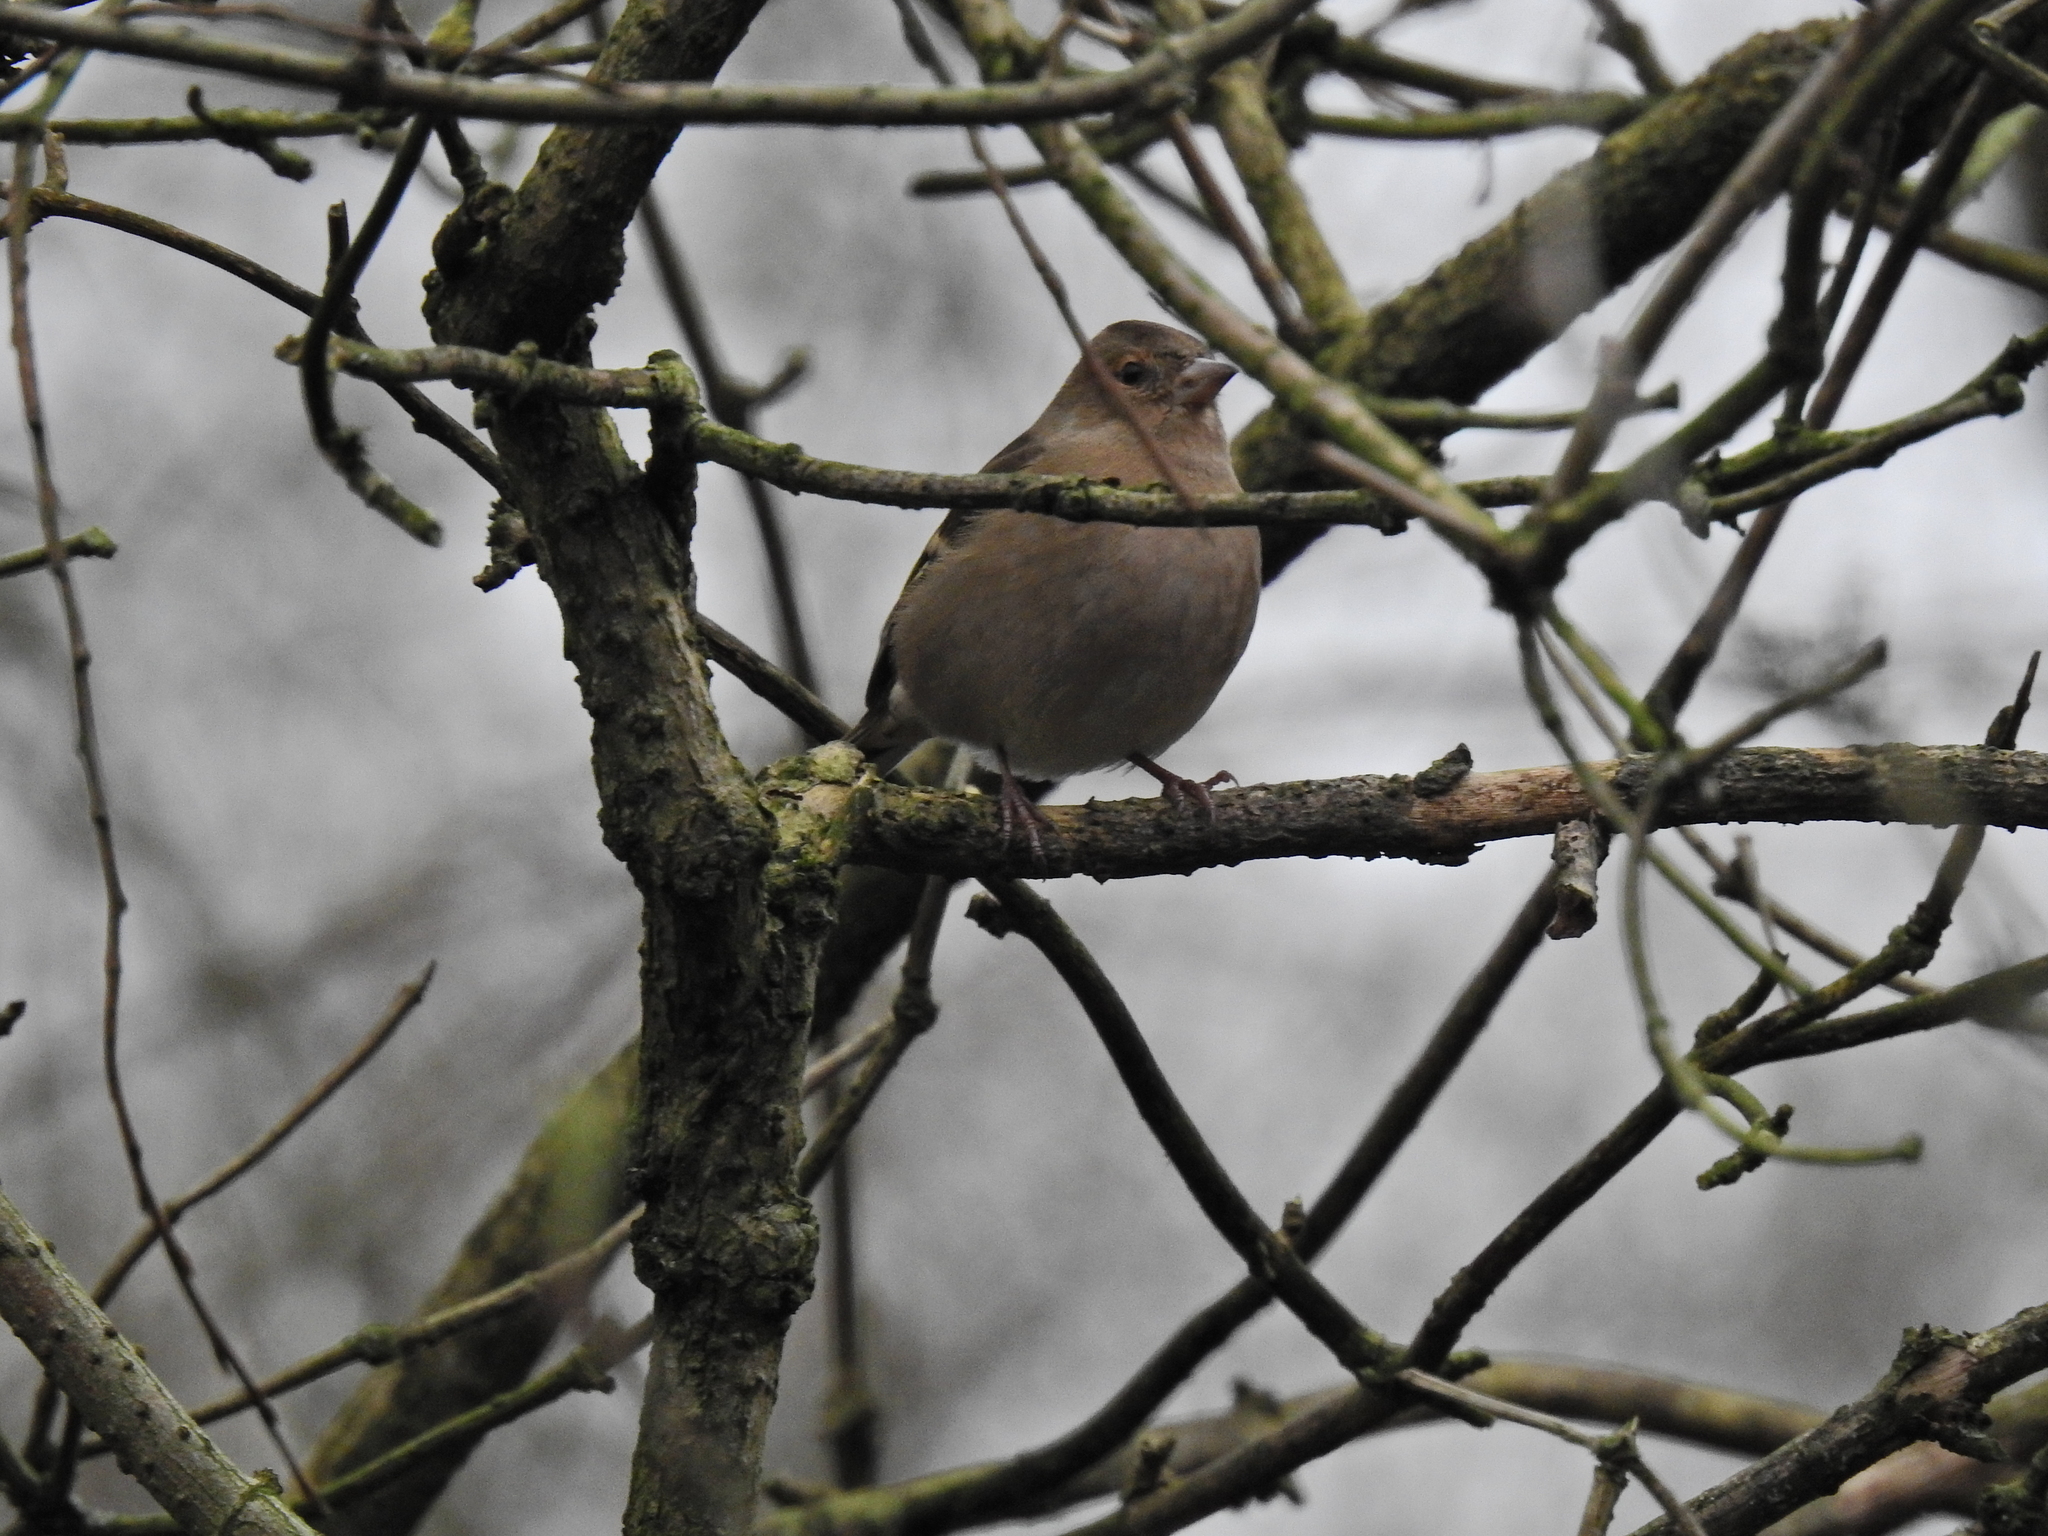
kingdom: Animalia
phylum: Chordata
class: Aves
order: Passeriformes
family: Fringillidae
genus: Fringilla
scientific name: Fringilla coelebs
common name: Common chaffinch
